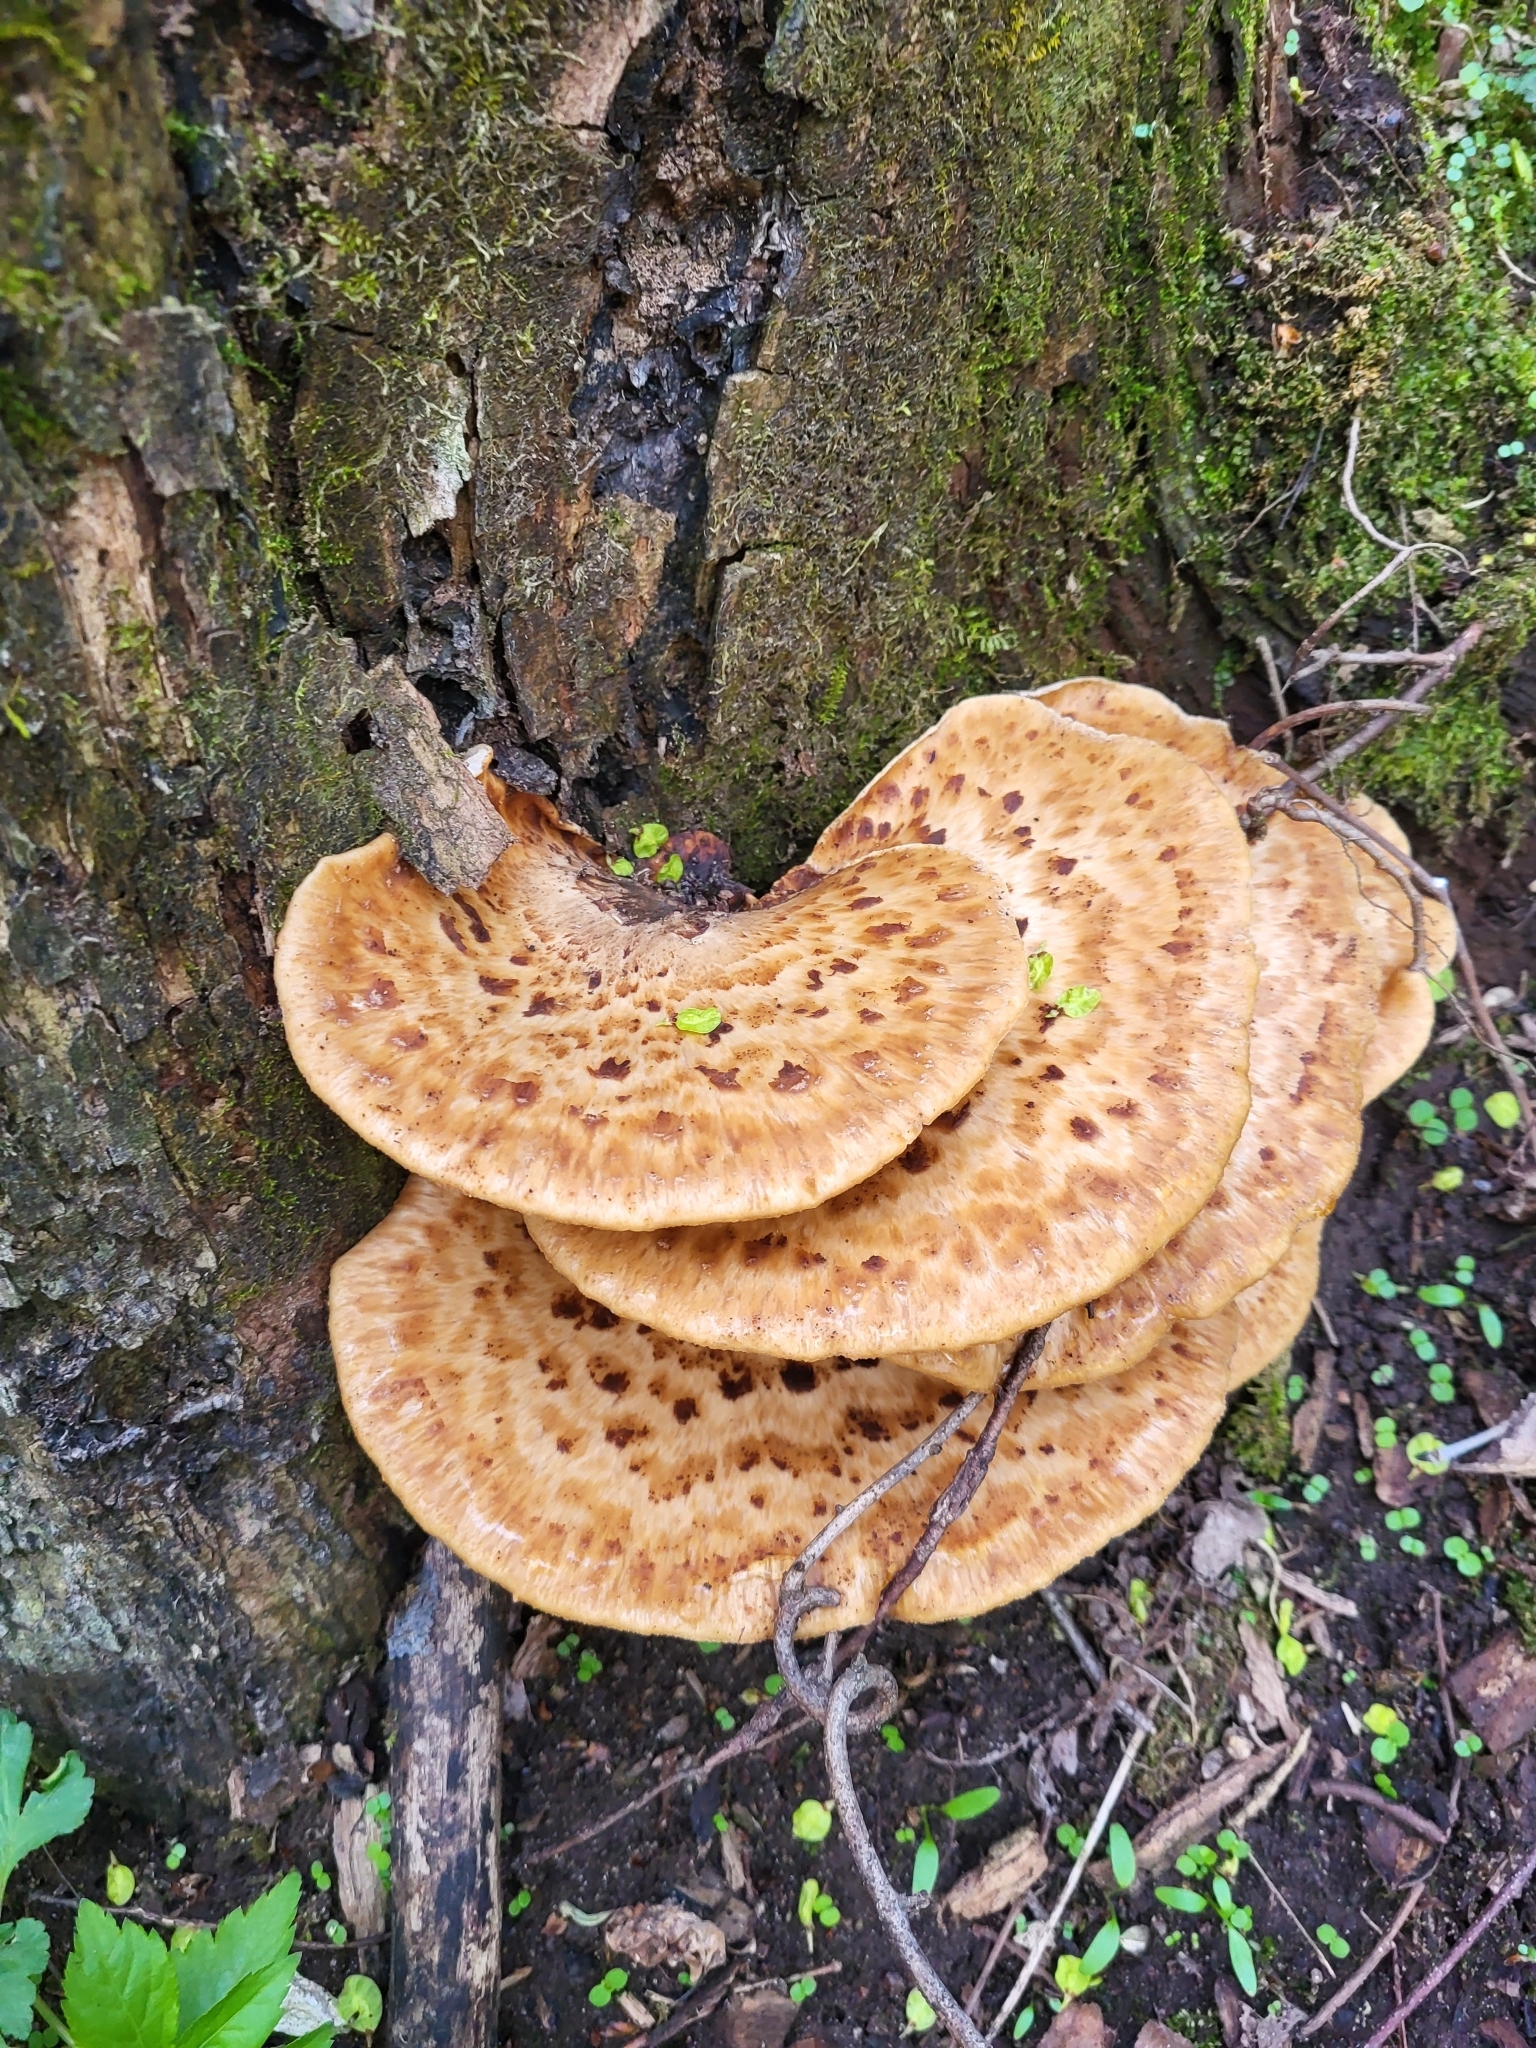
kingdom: Fungi
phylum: Basidiomycota
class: Agaricomycetes
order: Polyporales
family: Polyporaceae
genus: Cerioporus
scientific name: Cerioporus squamosus
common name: Dryad's saddle
